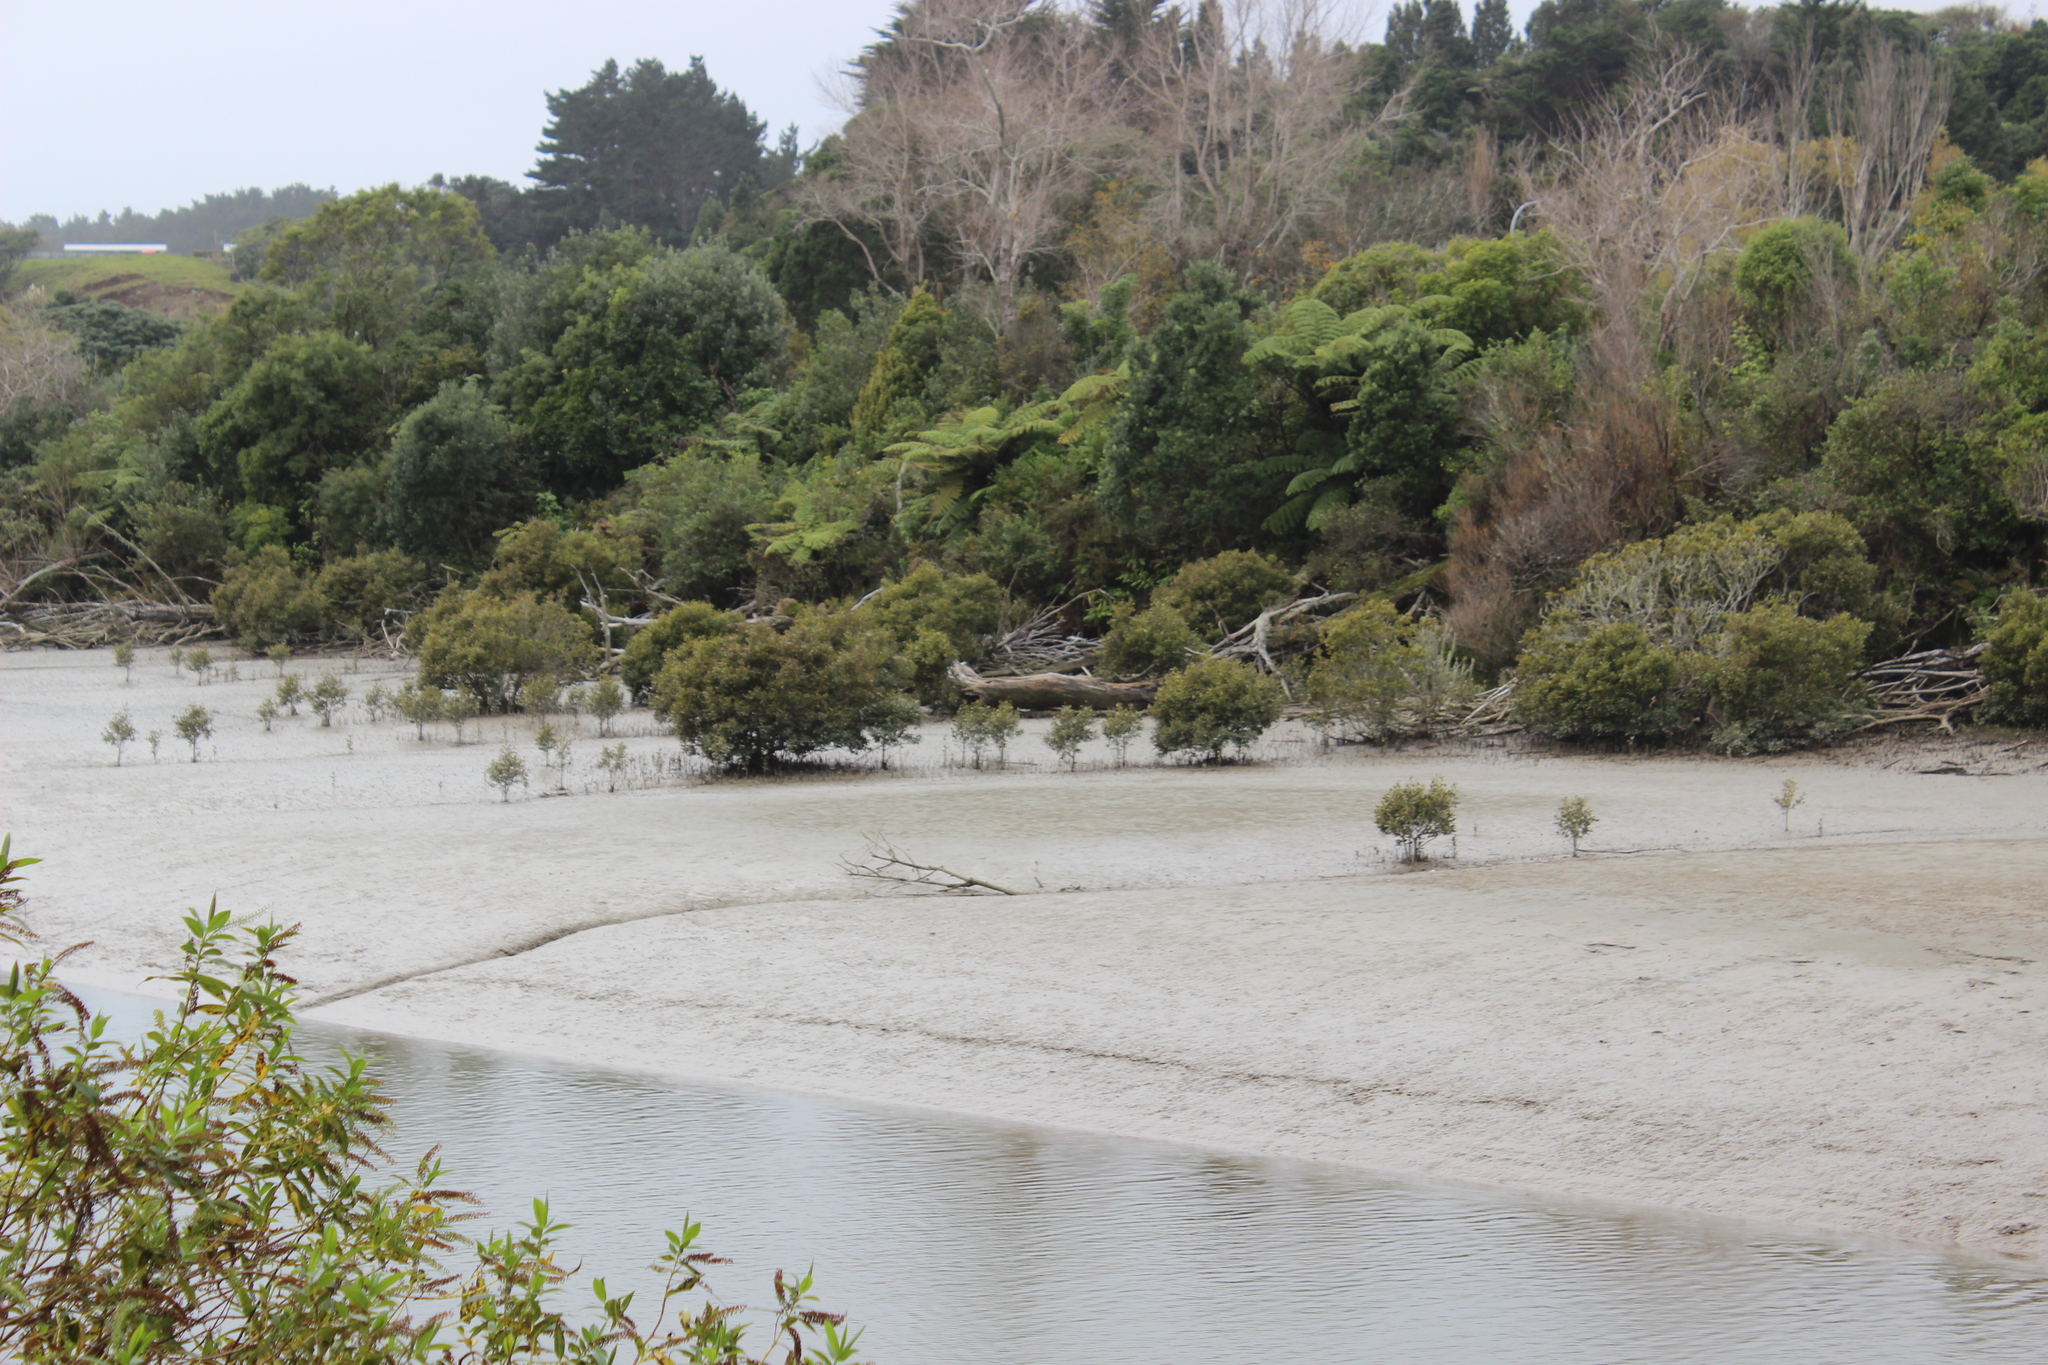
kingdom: Plantae
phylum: Tracheophyta
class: Magnoliopsida
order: Lamiales
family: Acanthaceae
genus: Avicennia
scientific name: Avicennia marina
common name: Gray mangrove
